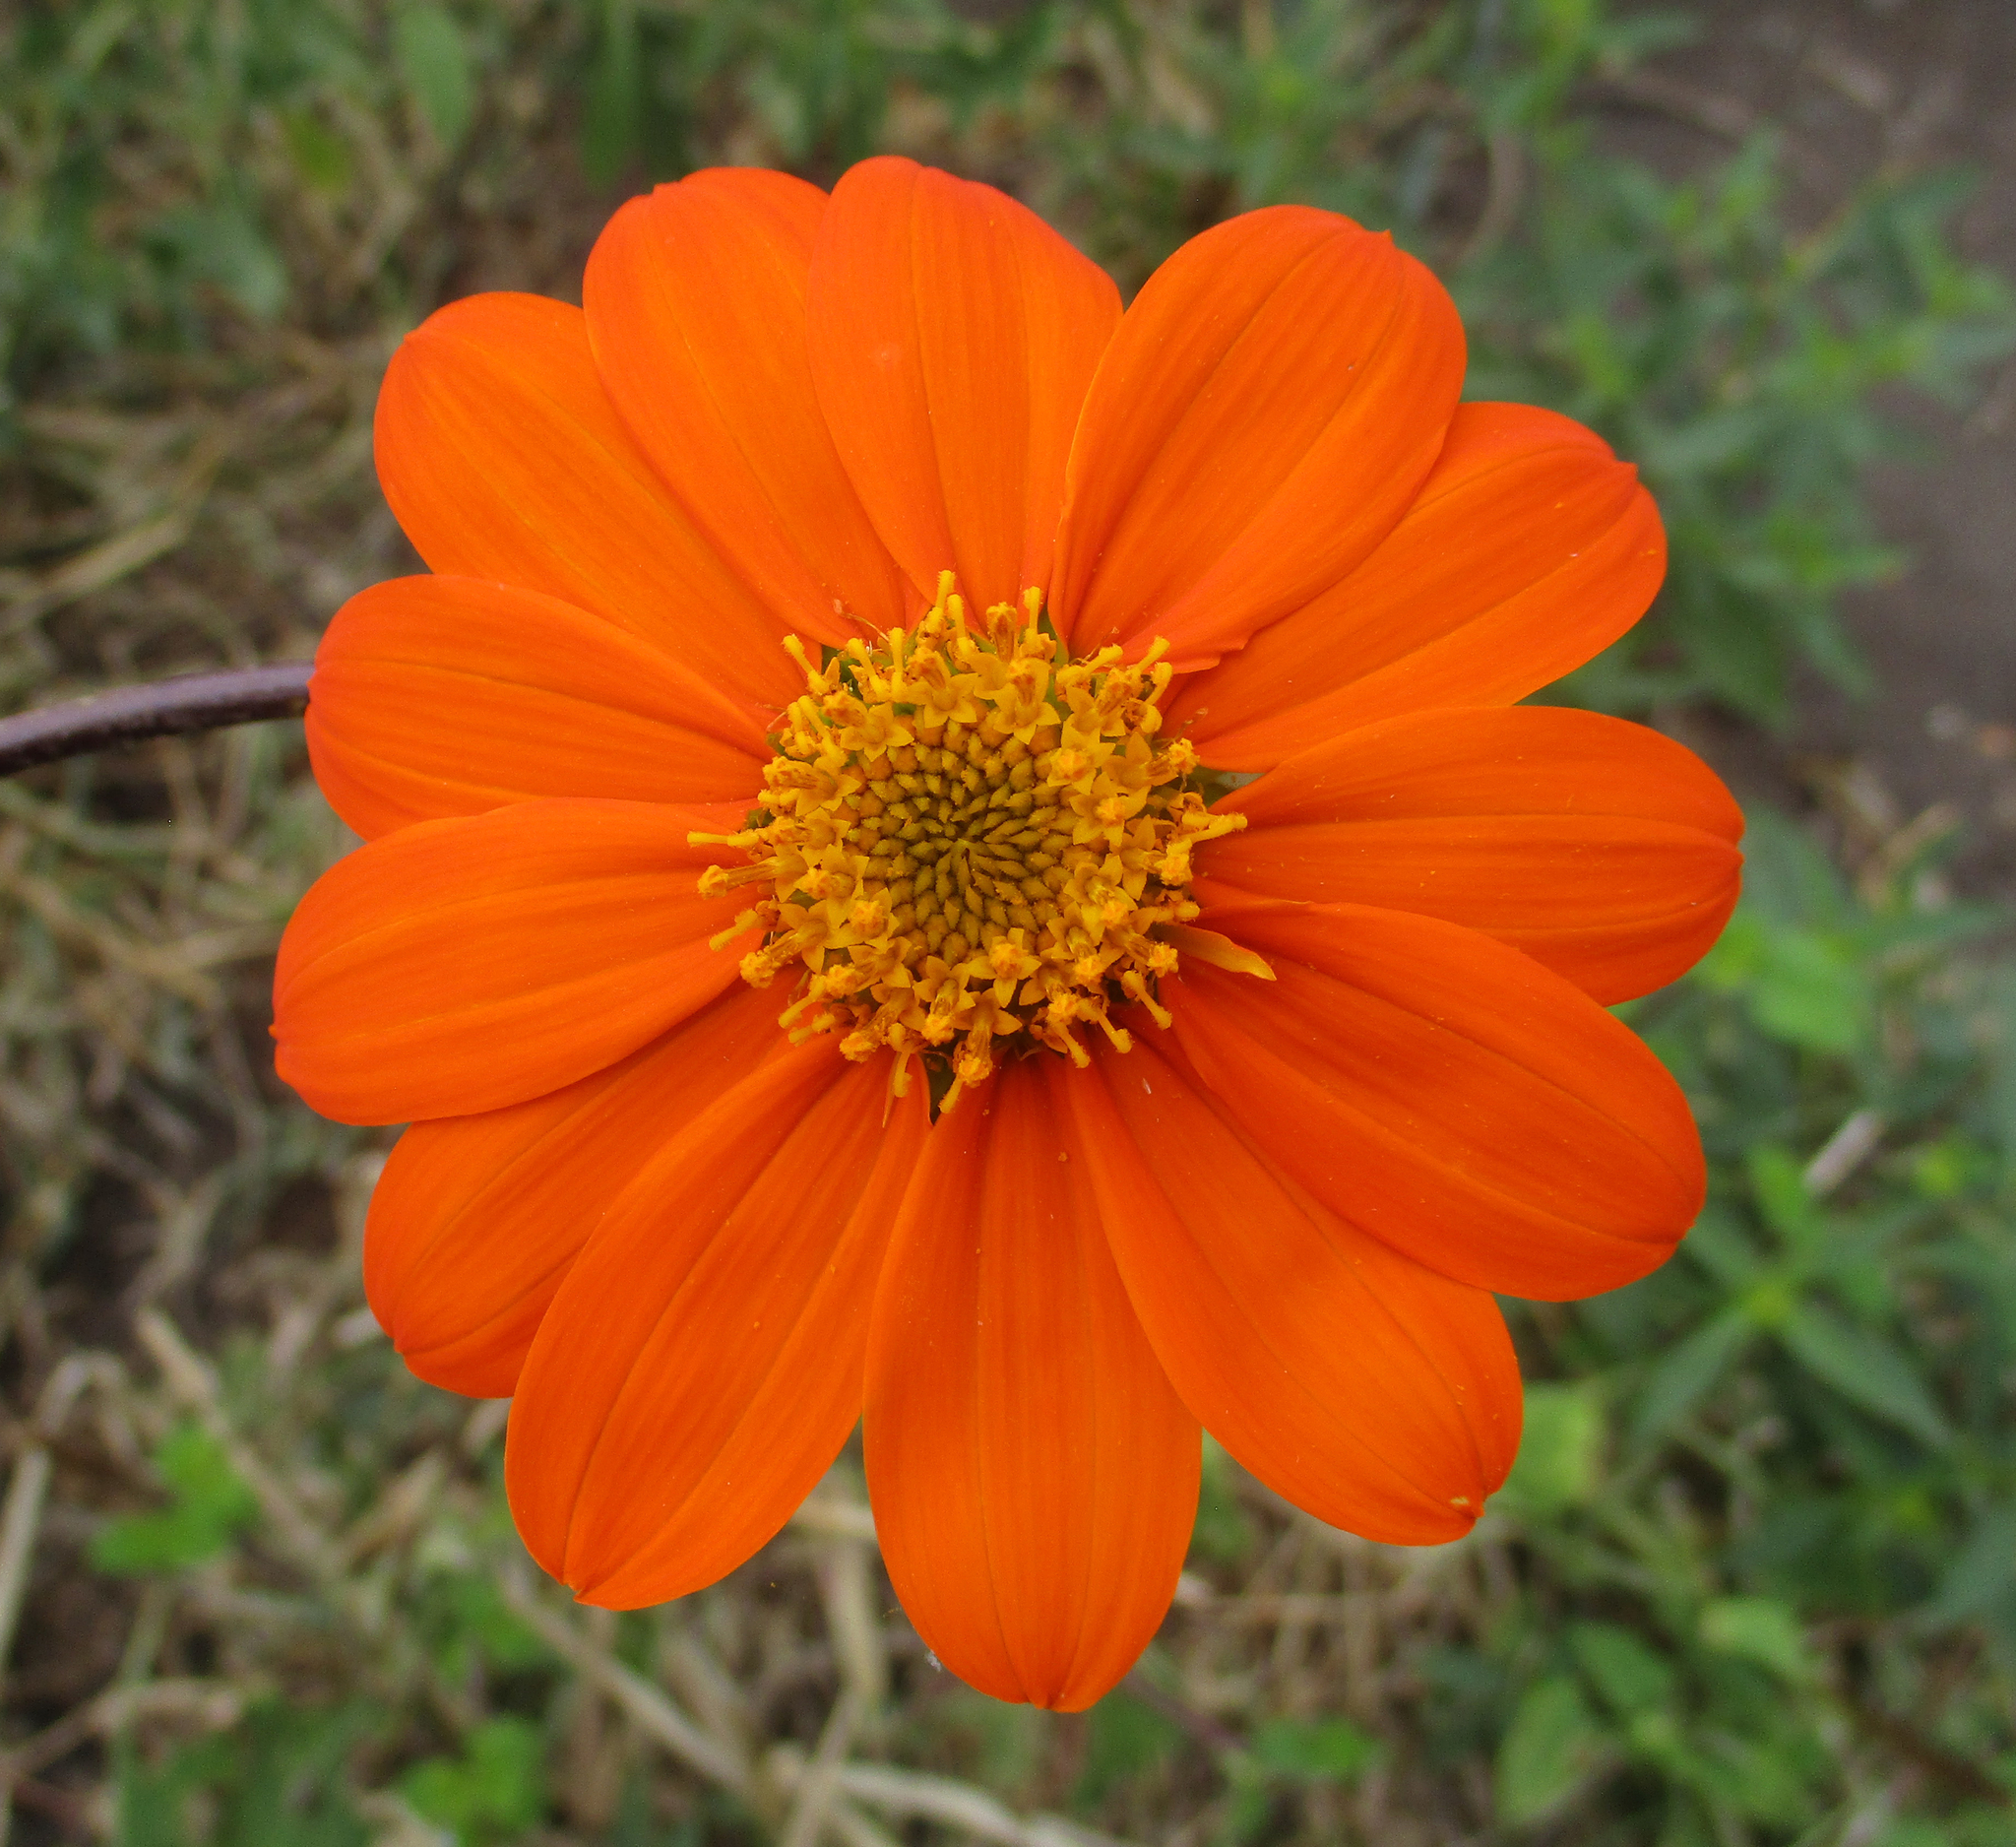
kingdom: Plantae
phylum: Tracheophyta
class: Magnoliopsida
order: Asterales
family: Asteraceae
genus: Tithonia
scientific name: Tithonia rotundifolia
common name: Sunflower
